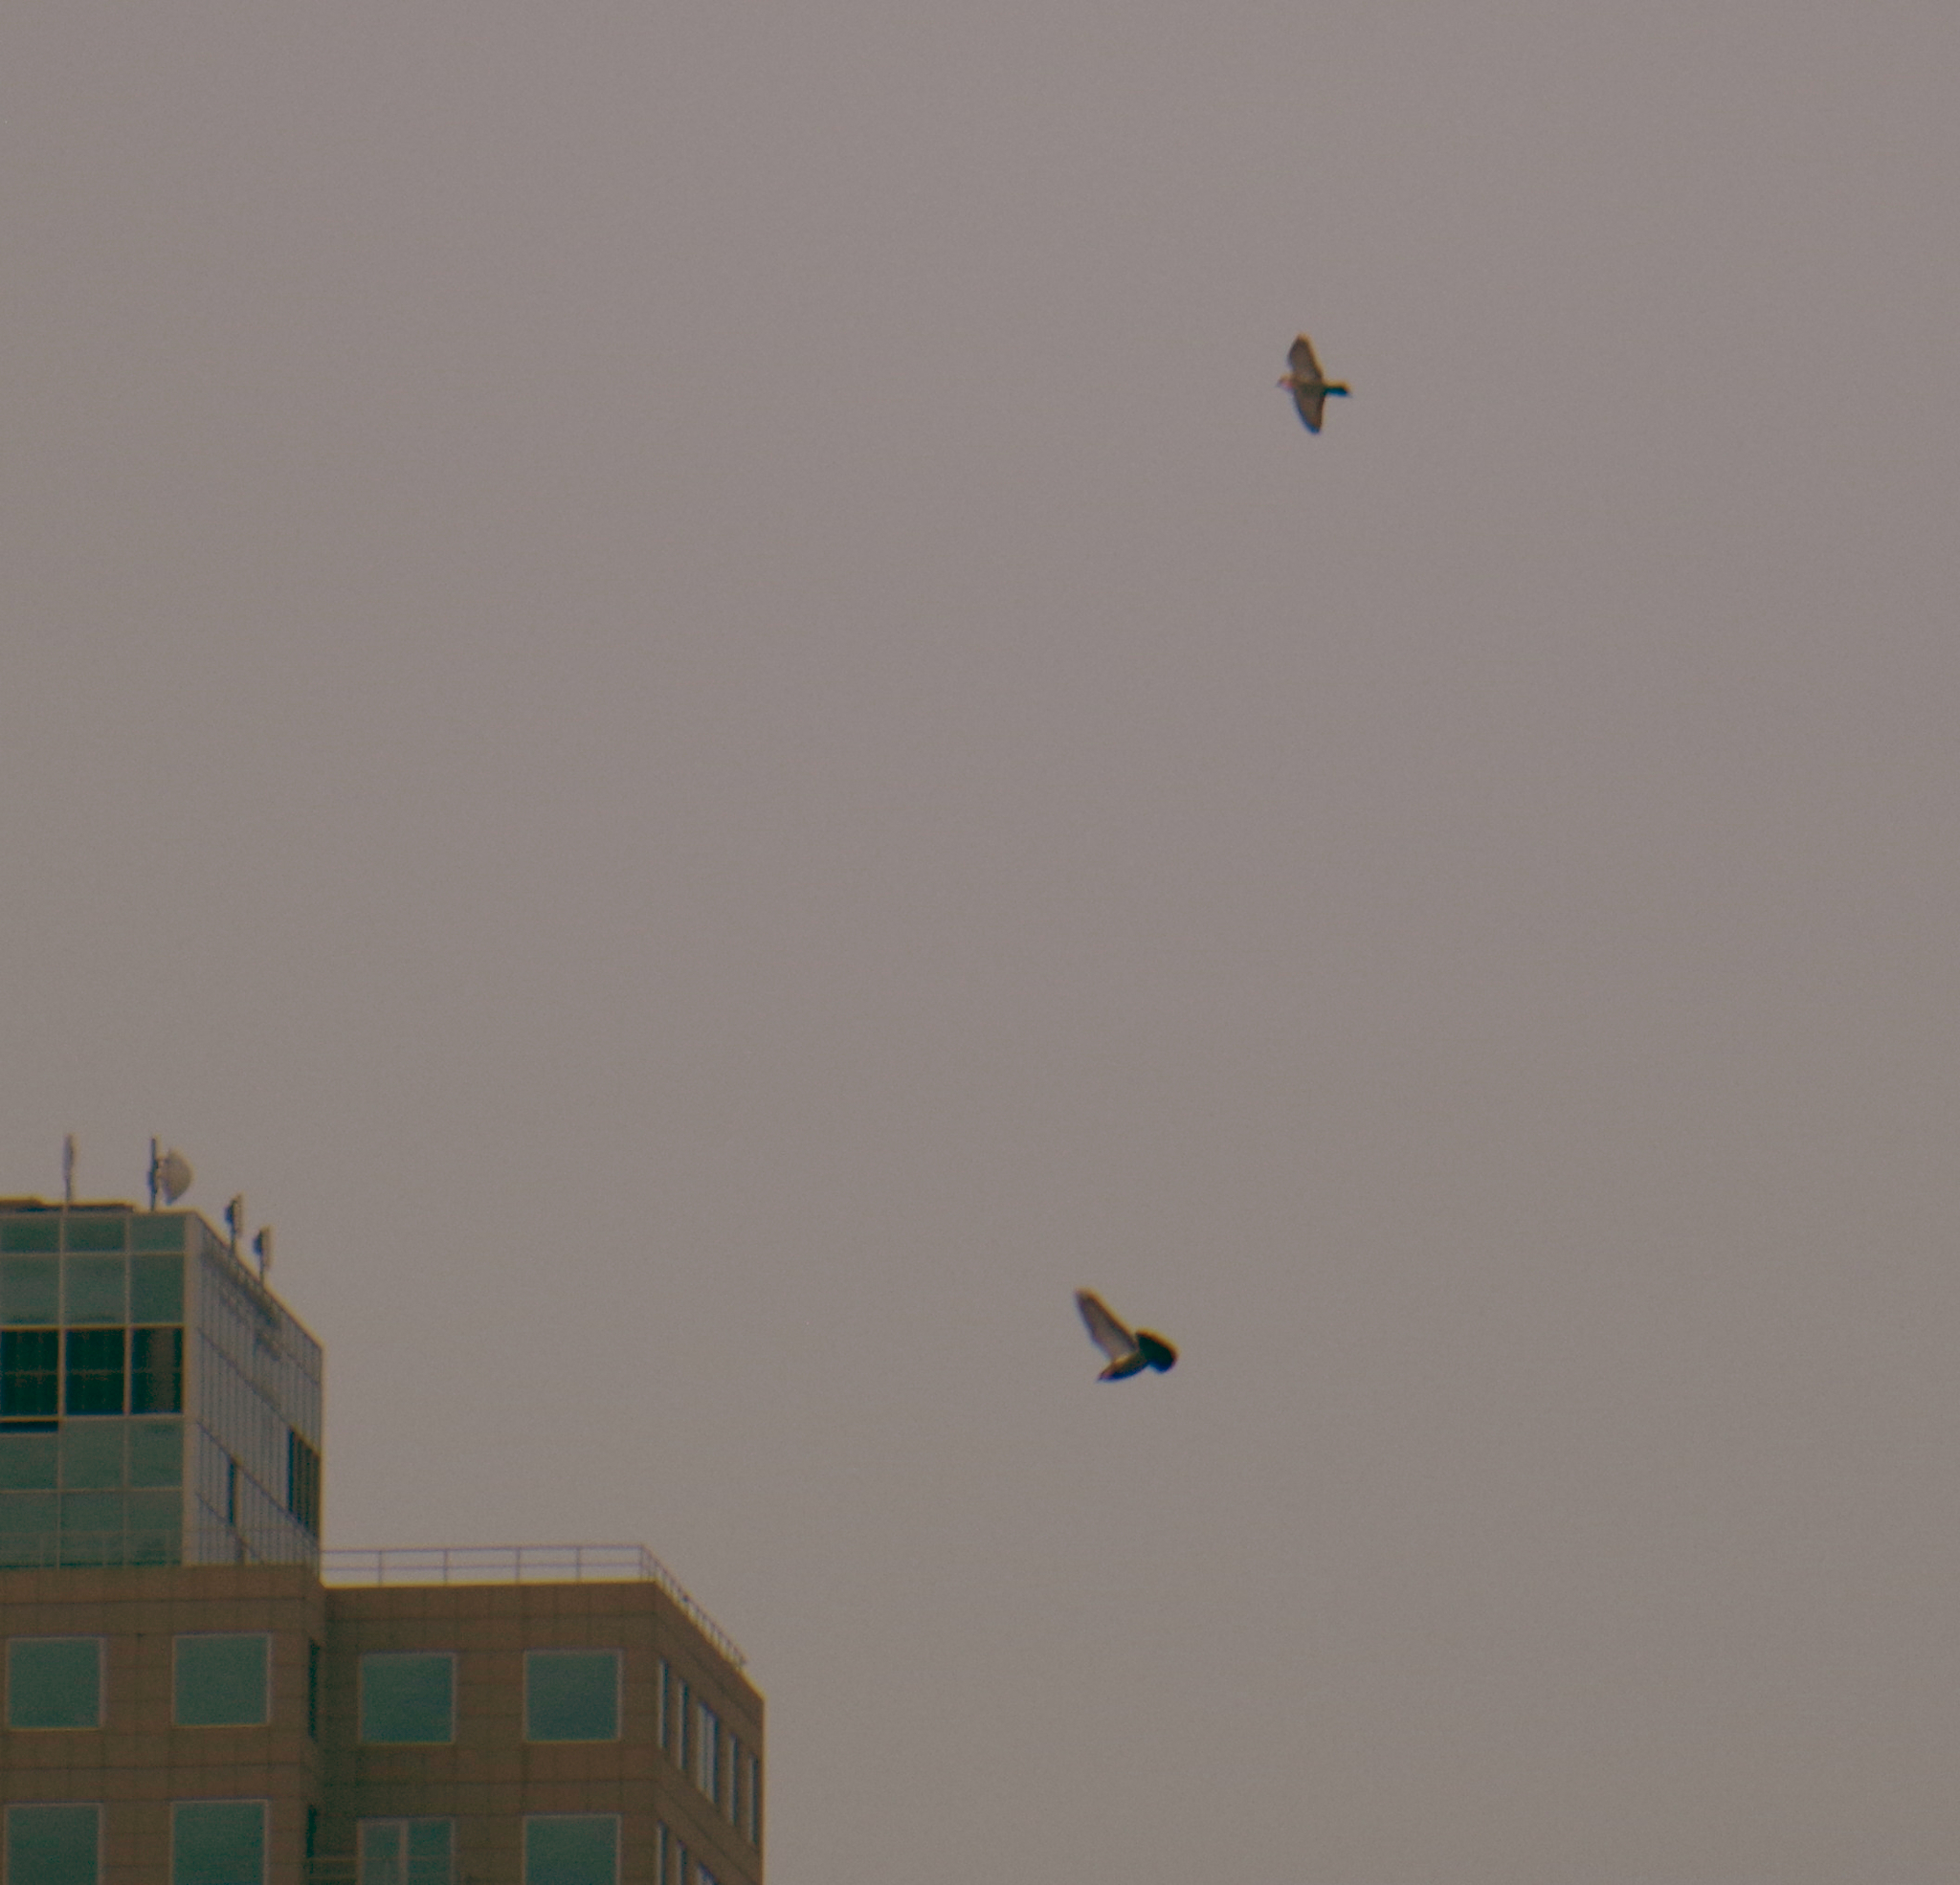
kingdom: Animalia
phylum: Chordata
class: Aves
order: Columbiformes
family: Columbidae
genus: Columba
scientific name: Columba livia
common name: Rock pigeon
